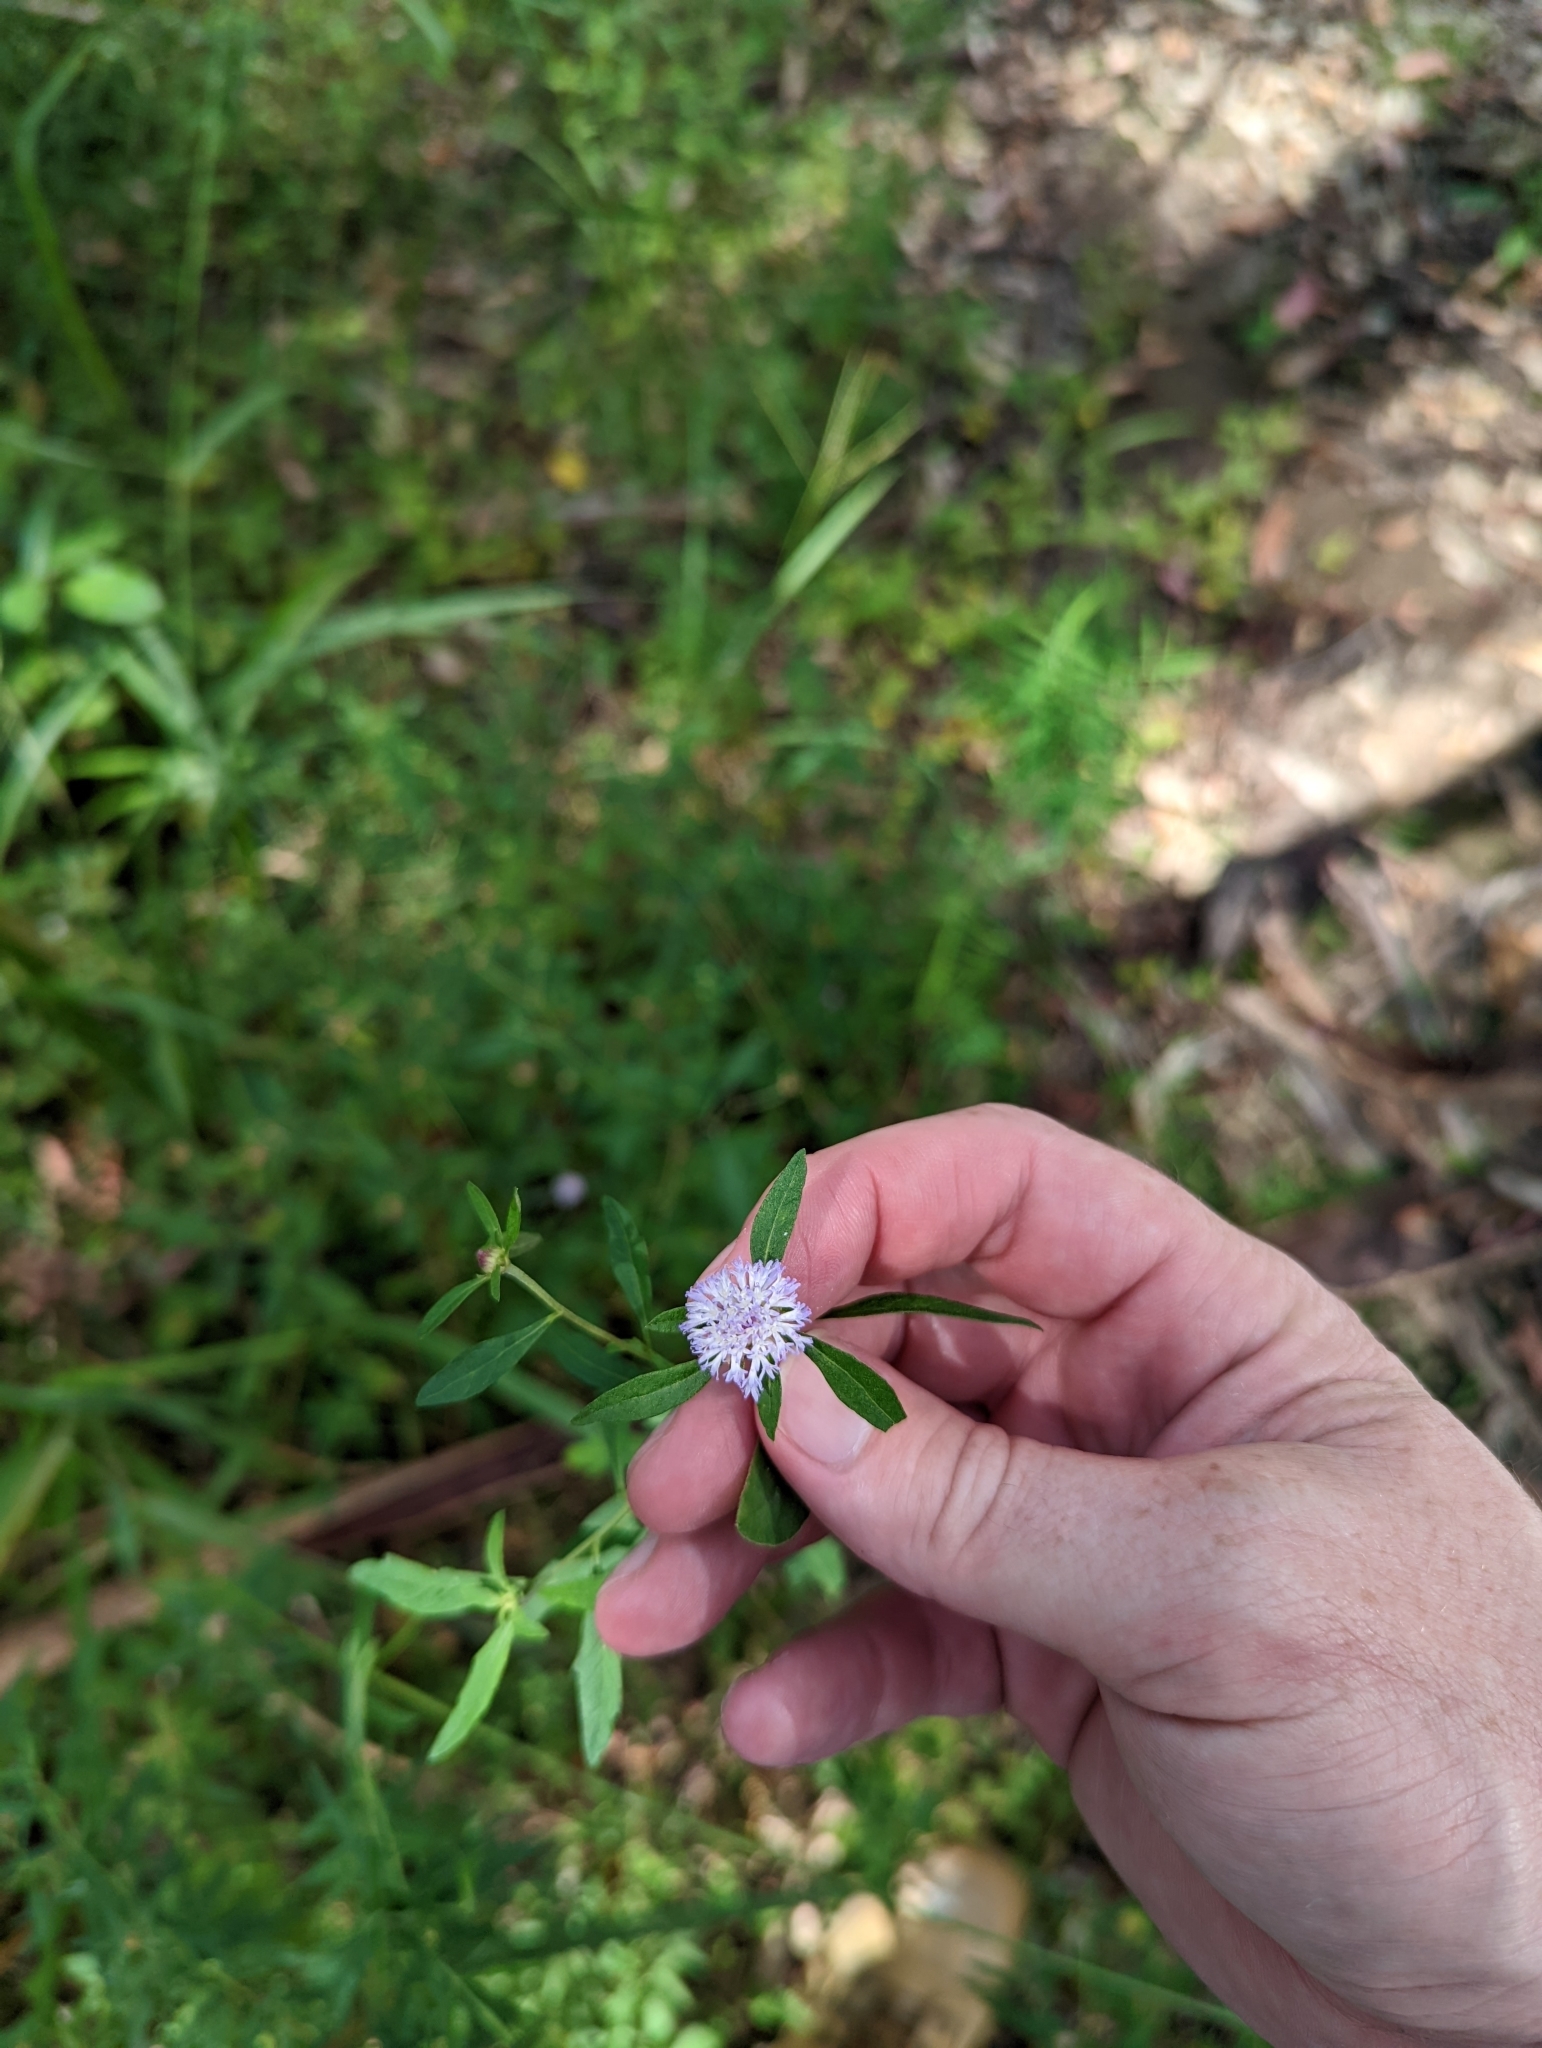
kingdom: Plantae
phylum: Tracheophyta
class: Magnoliopsida
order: Asterales
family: Asteraceae
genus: Centratherum
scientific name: Centratherum punctatum
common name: Larkdaisy
